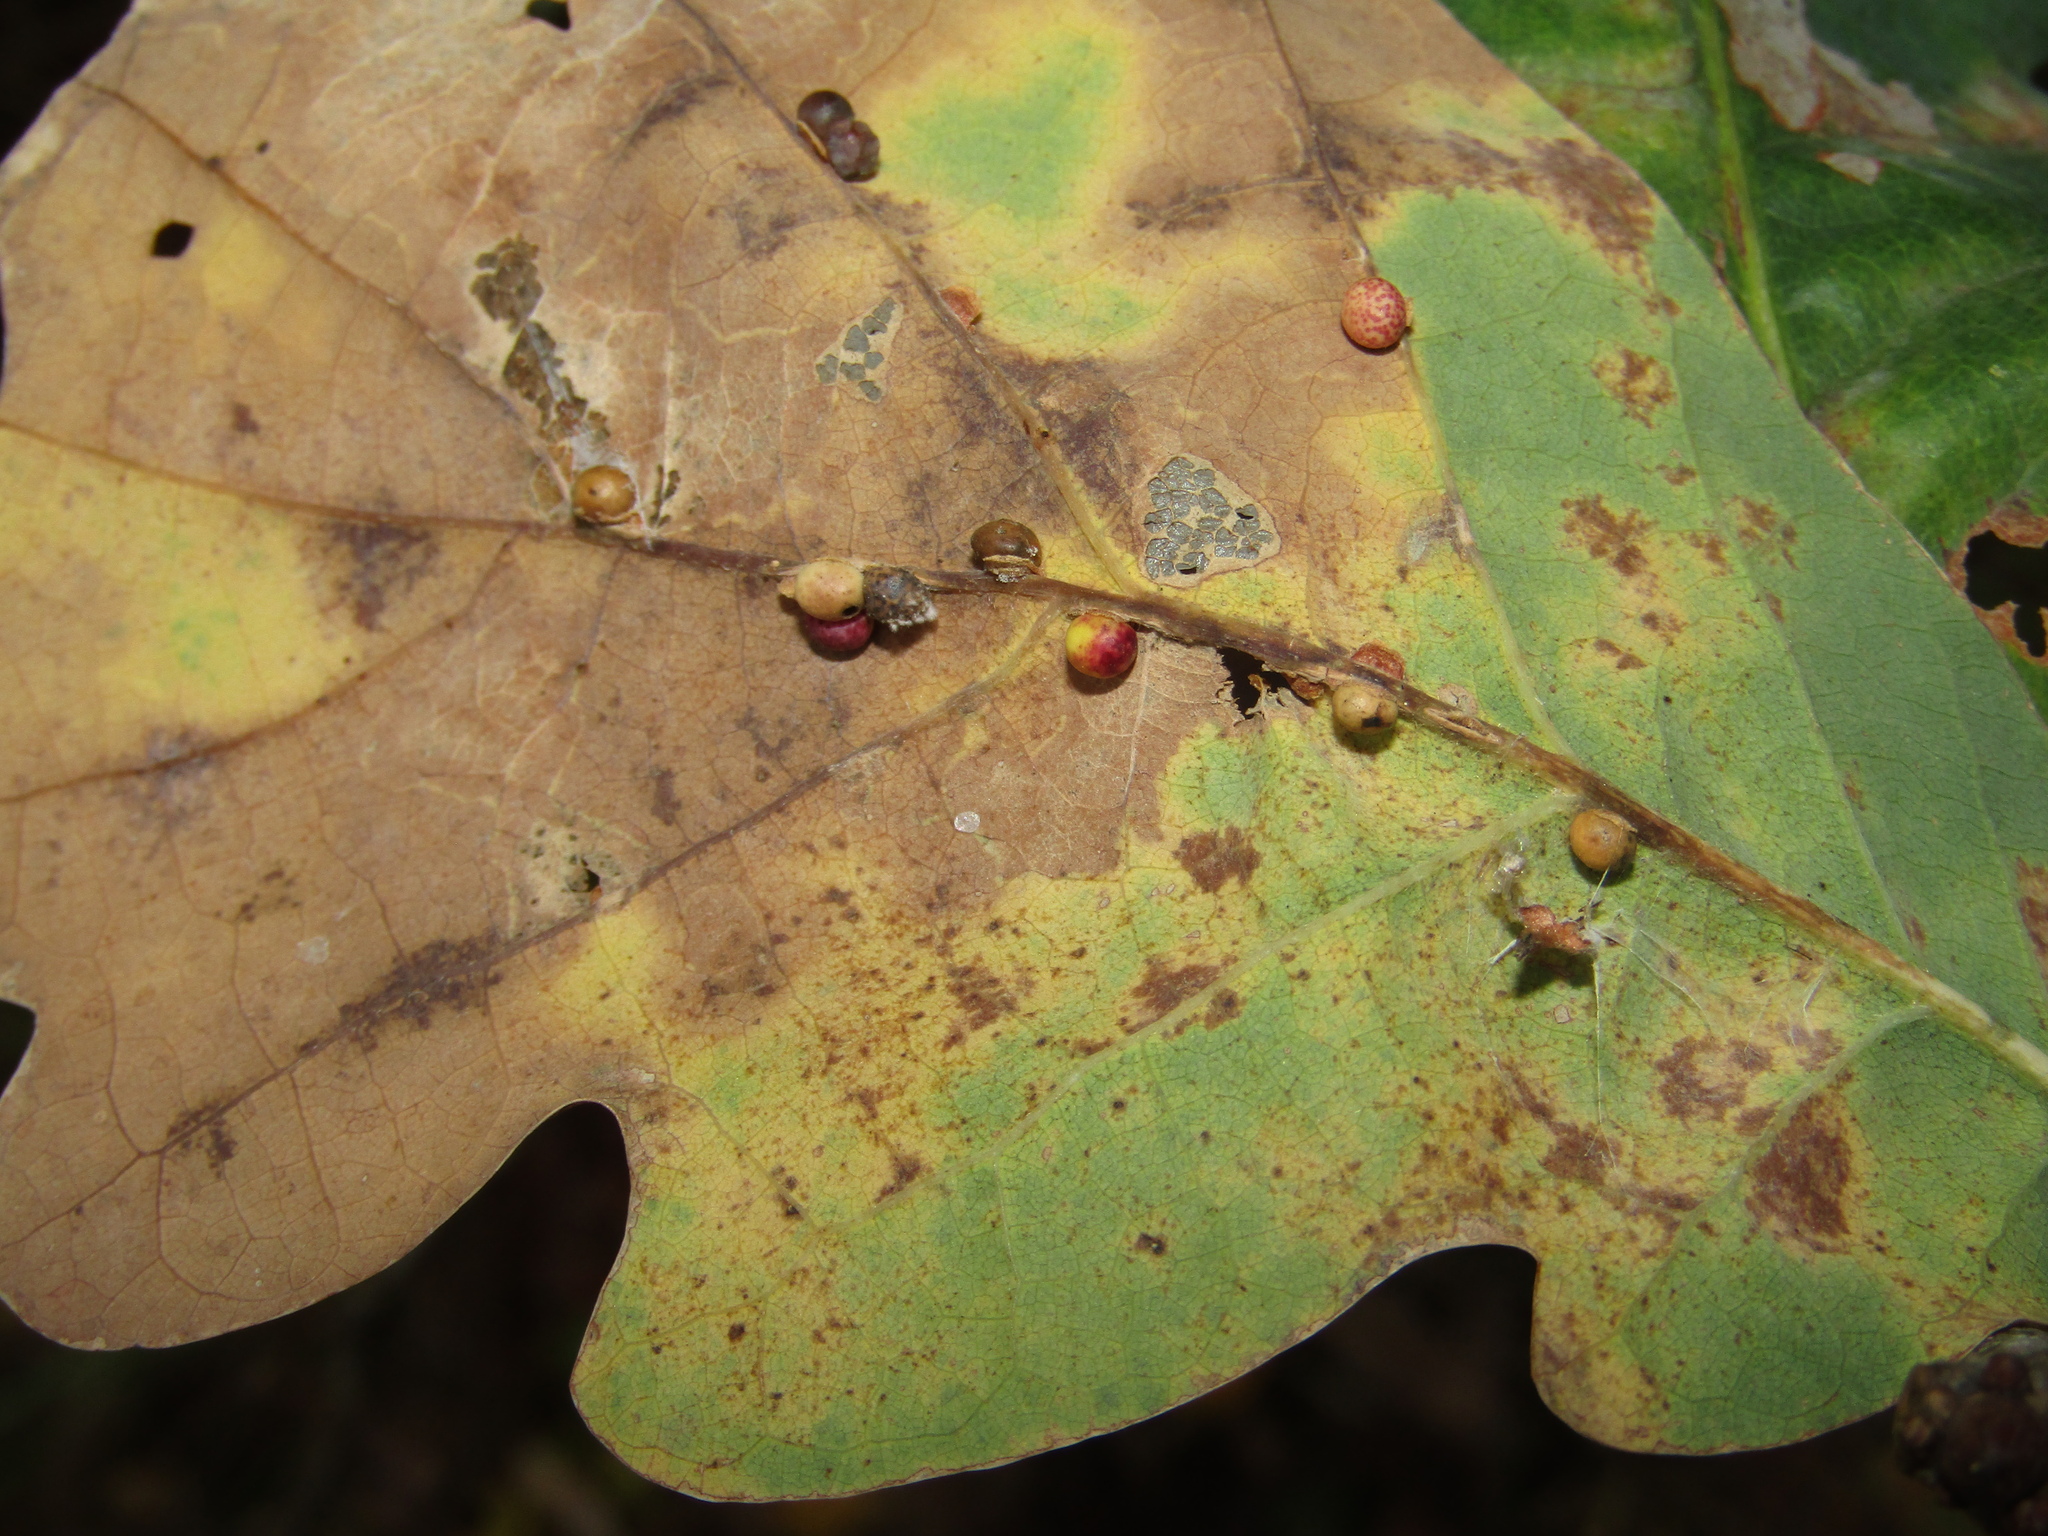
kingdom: Animalia
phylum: Arthropoda
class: Insecta
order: Hymenoptera
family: Cynipidae
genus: Neuroterus
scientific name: Neuroterus anthracinus
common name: Oyster gall
